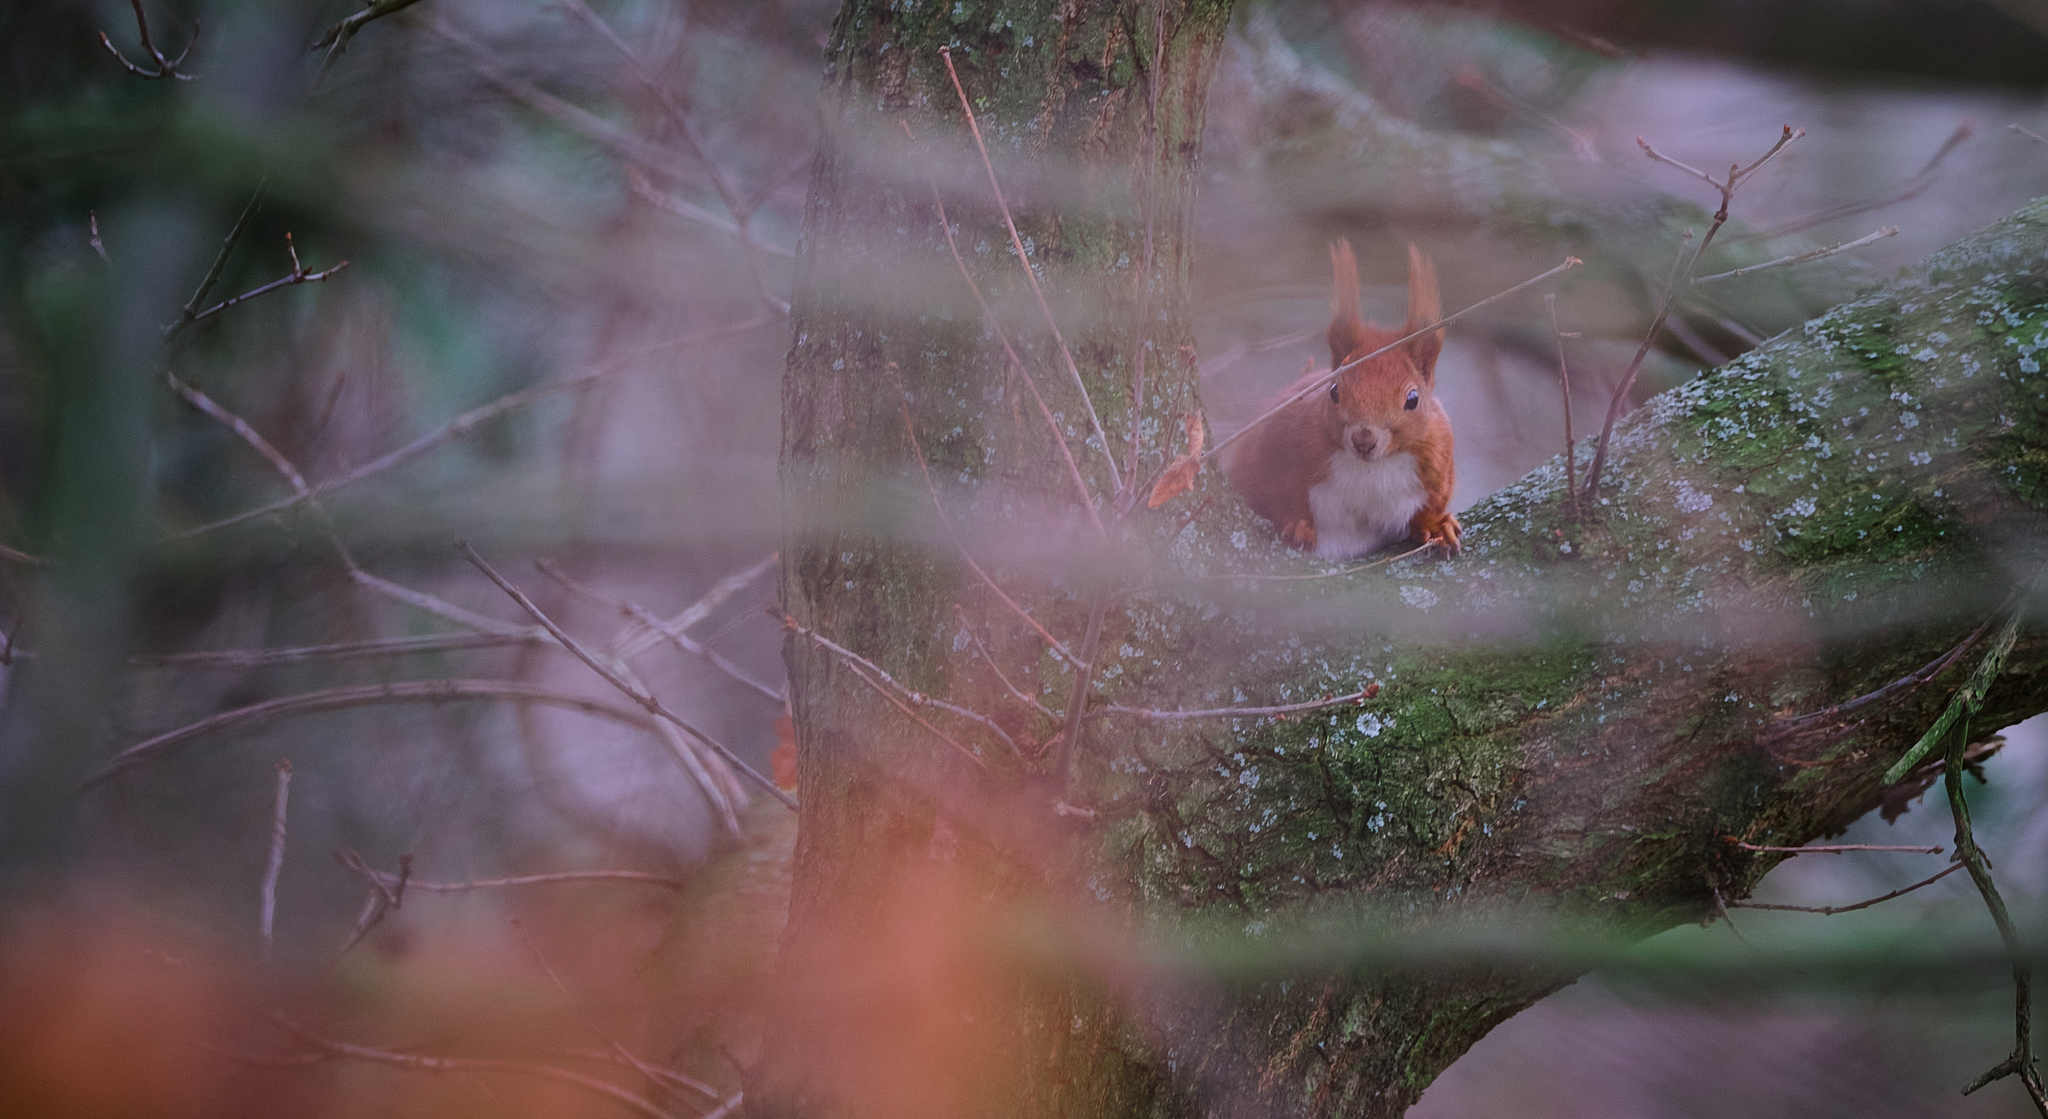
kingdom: Animalia
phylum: Chordata
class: Mammalia
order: Rodentia
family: Sciuridae
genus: Sciurus
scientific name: Sciurus vulgaris
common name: Eurasian red squirrel
